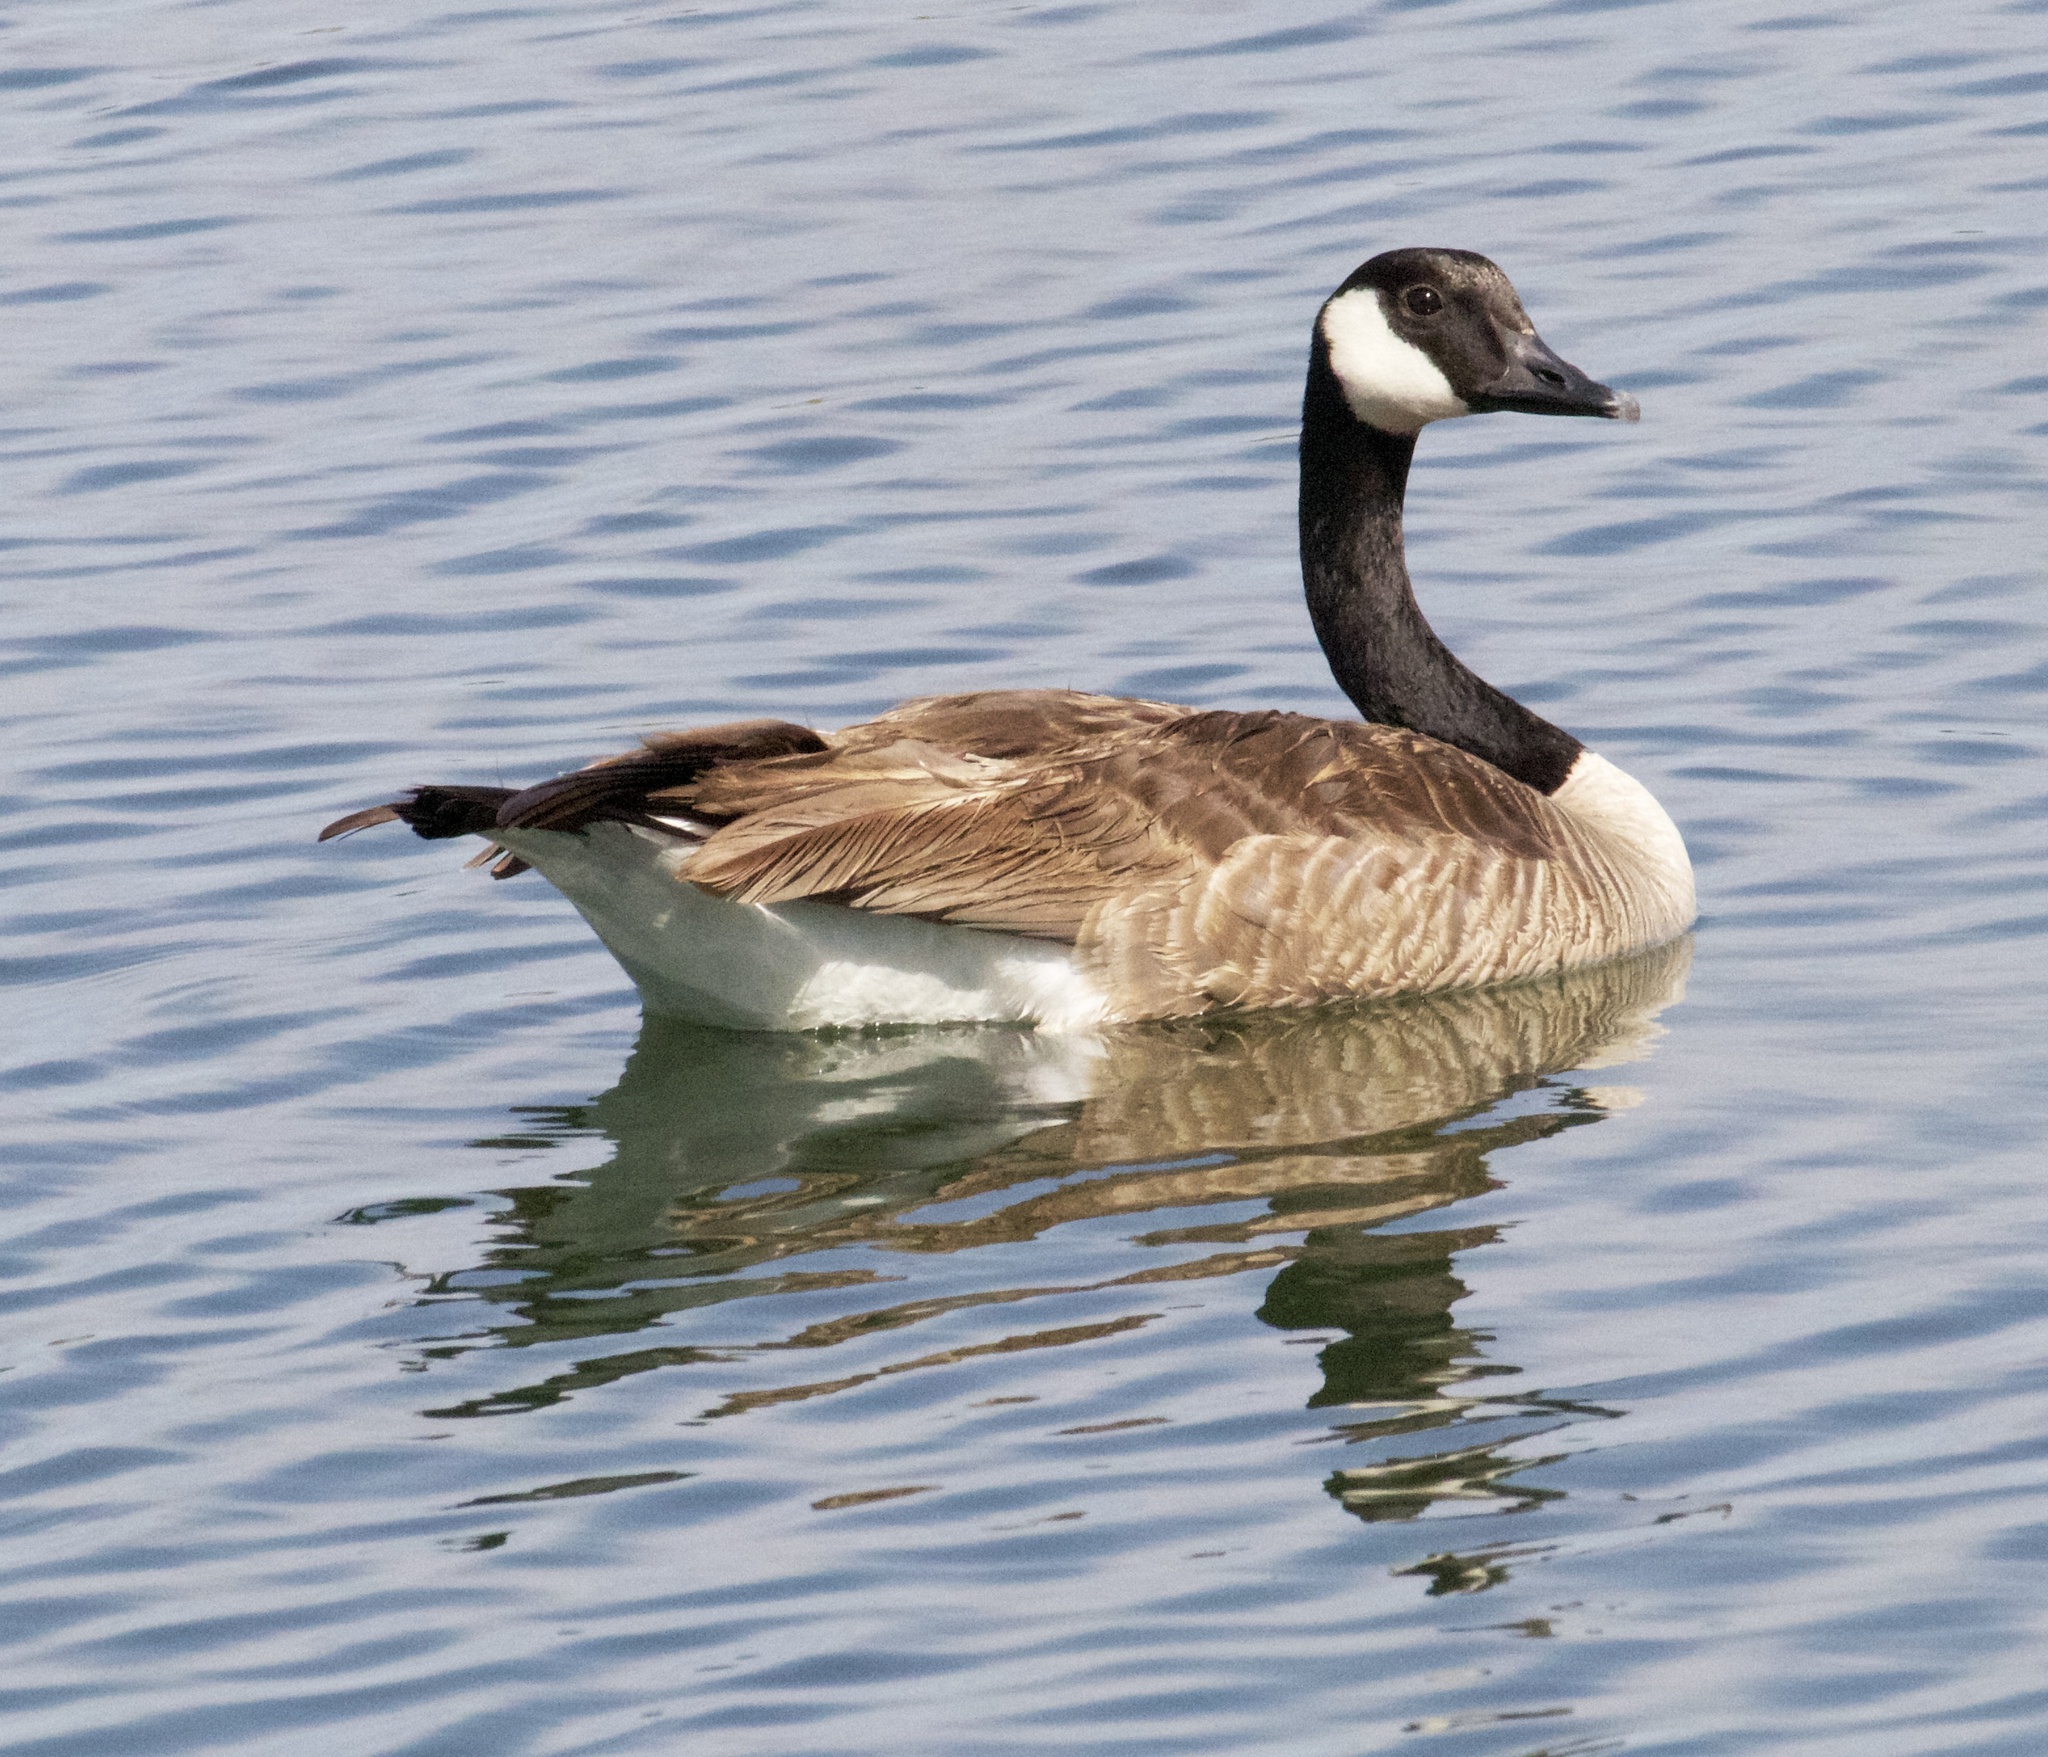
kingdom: Animalia
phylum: Chordata
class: Aves
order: Anseriformes
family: Anatidae
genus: Branta
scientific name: Branta canadensis
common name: Canada goose
